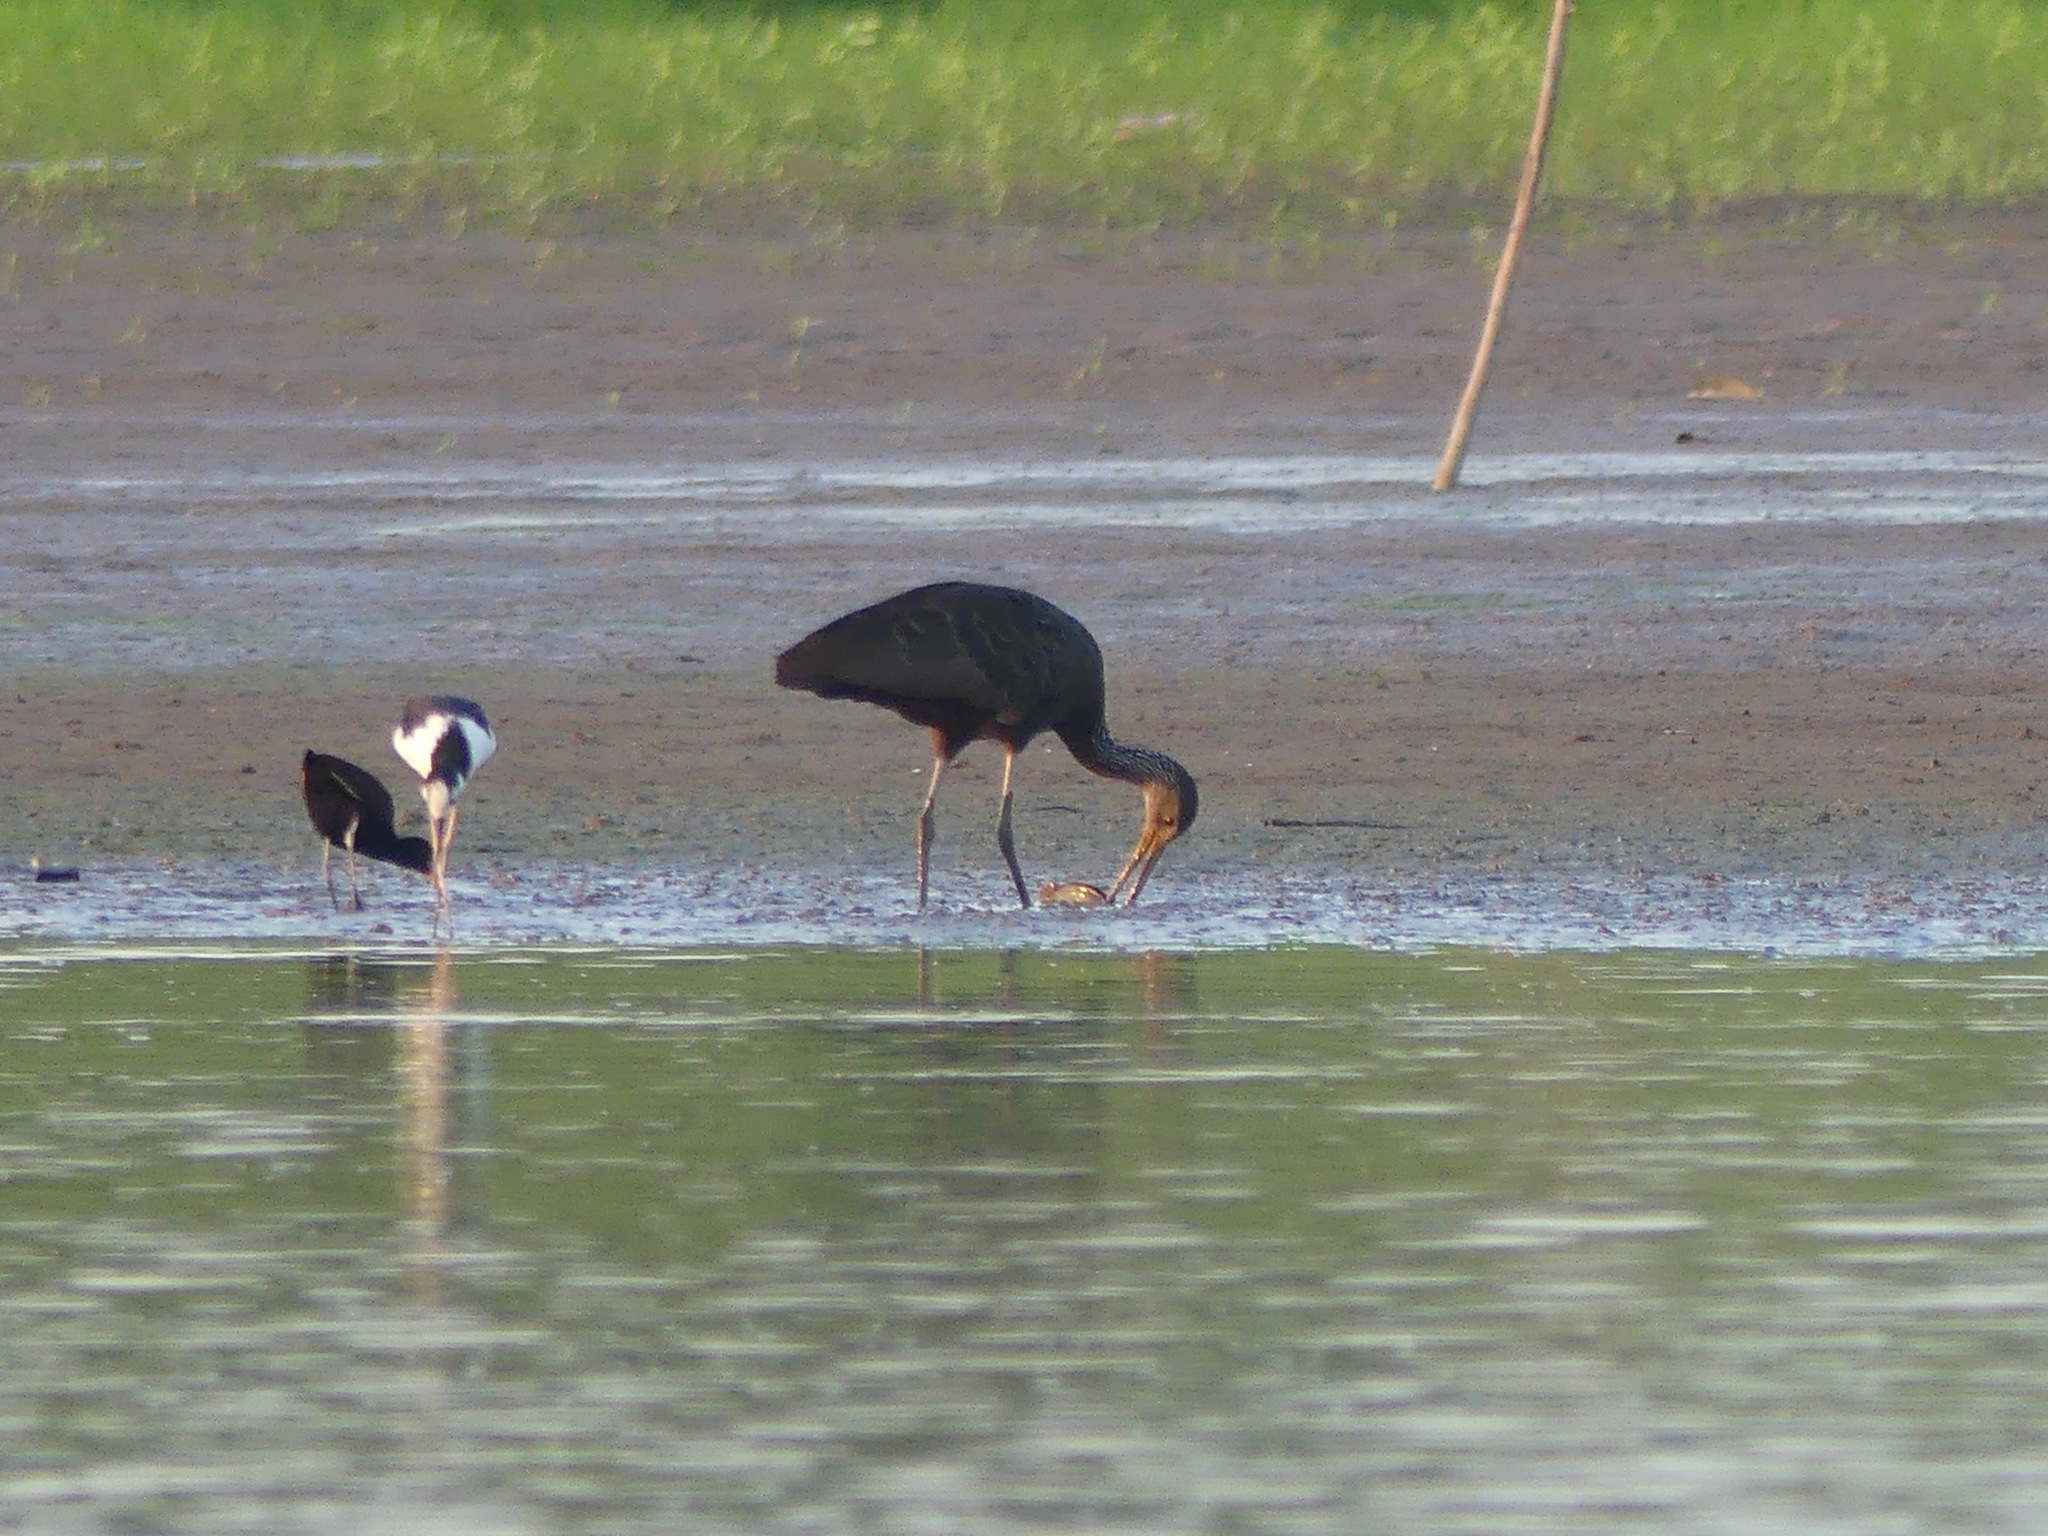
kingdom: Animalia
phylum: Chordata
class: Aves
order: Gruiformes
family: Aramidae
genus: Aramus
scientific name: Aramus guarauna
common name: Limpkin
